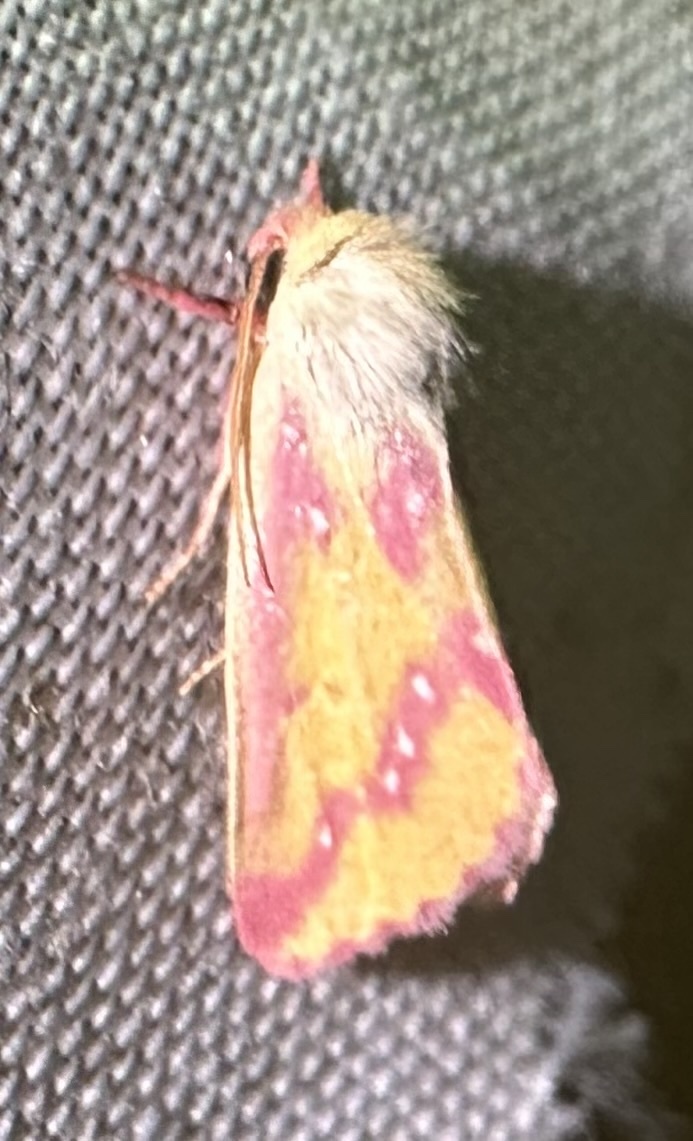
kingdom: Animalia
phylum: Arthropoda
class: Insecta
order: Lepidoptera
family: Noctuidae
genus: Timora
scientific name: Timora leucosticta
